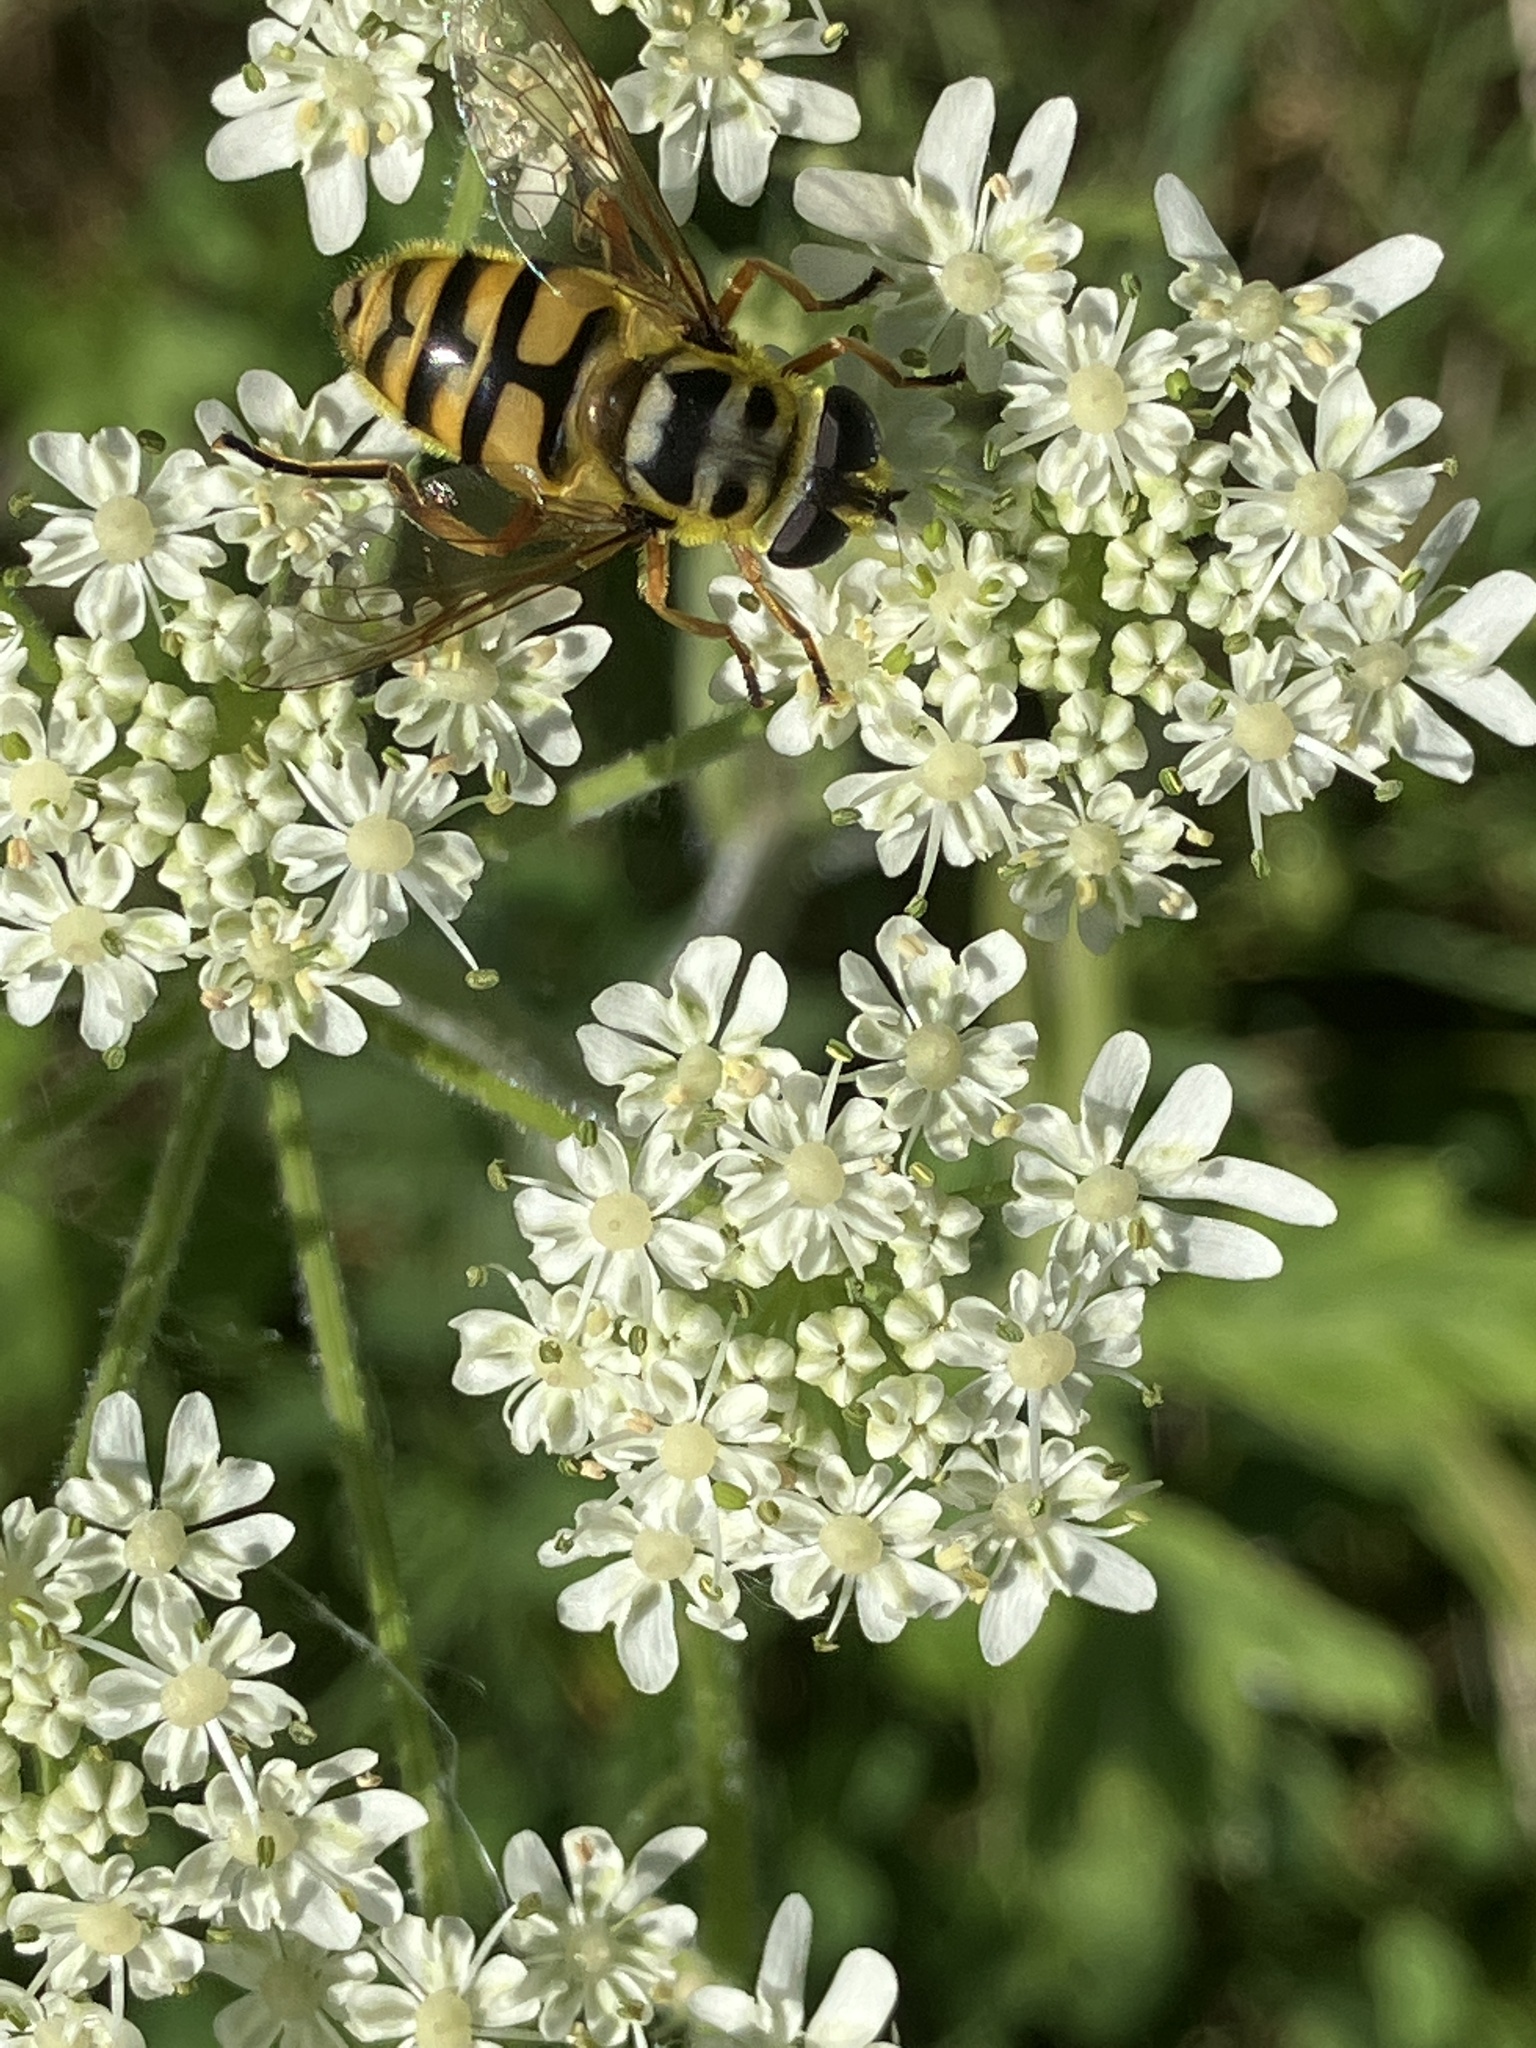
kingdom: Animalia
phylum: Arthropoda
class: Insecta
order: Diptera
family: Syrphidae
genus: Myathropa
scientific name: Myathropa florea
